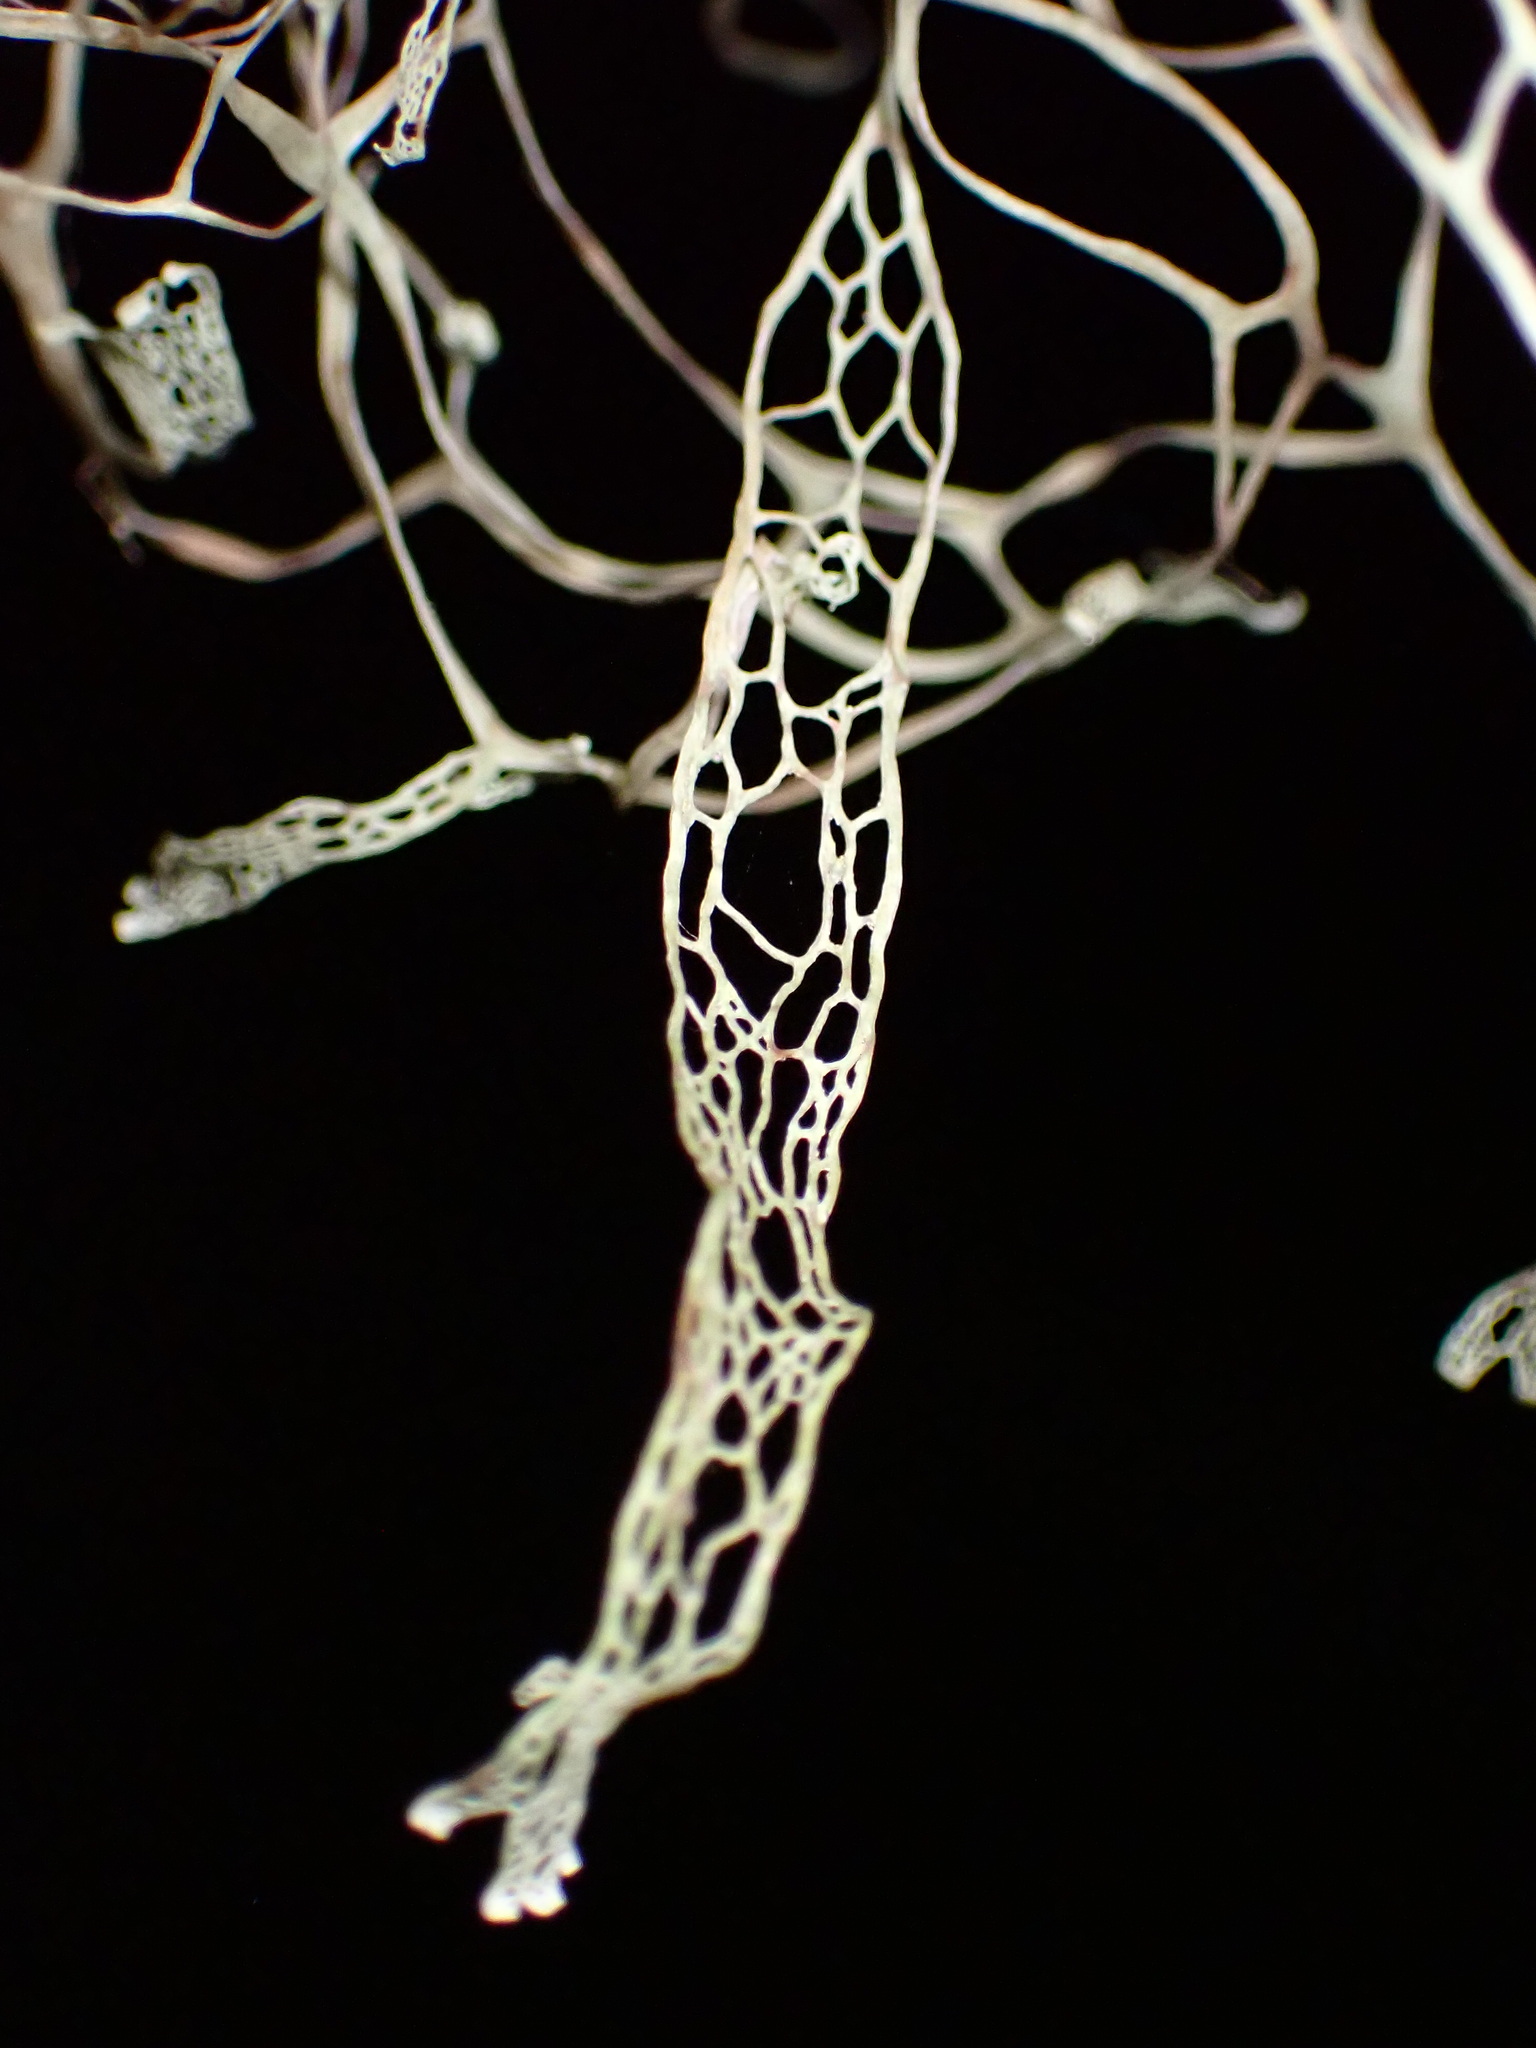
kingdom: Fungi
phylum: Ascomycota
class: Lecanoromycetes
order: Lecanorales
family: Ramalinaceae
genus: Ramalina
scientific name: Ramalina menziesii
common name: Lace lichen
